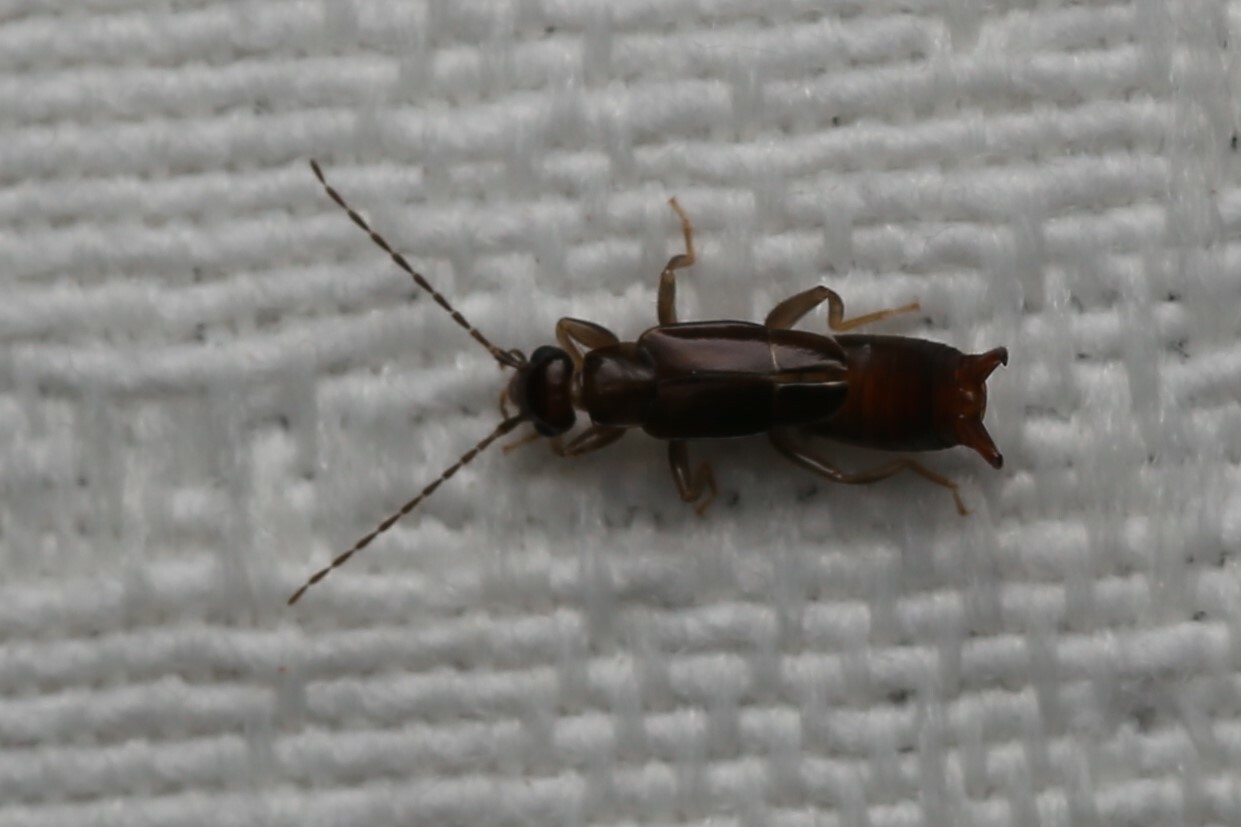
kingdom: Animalia
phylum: Arthropoda
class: Insecta
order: Dermaptera
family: Spongiphoridae
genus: Nesogaster
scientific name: Nesogaster halli
